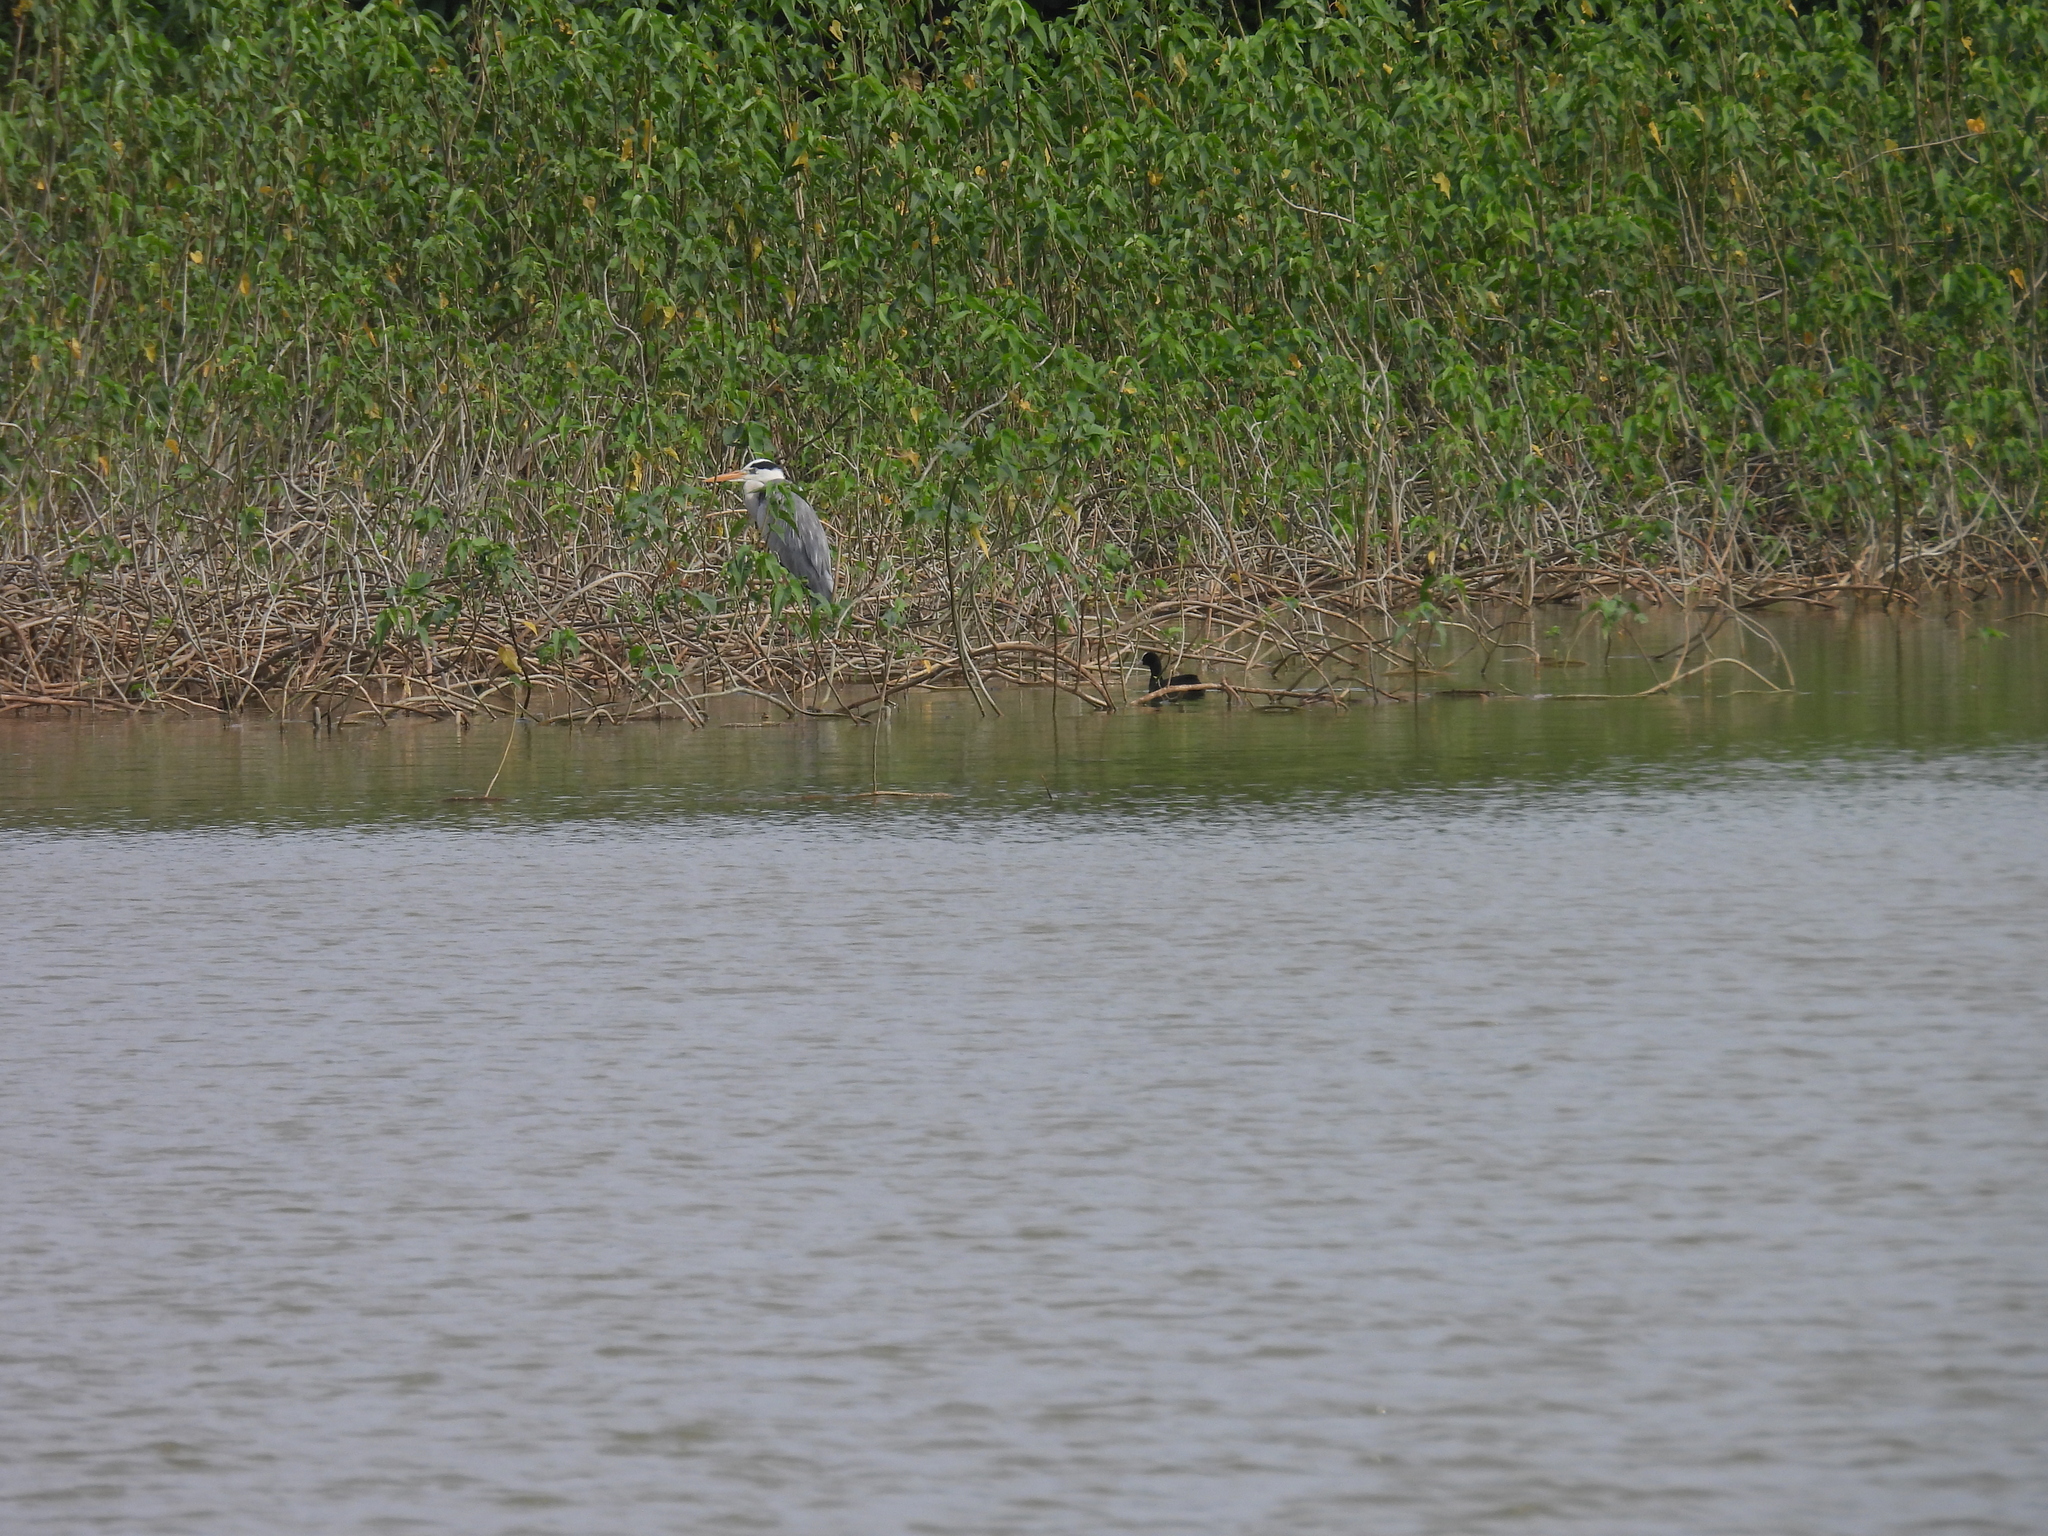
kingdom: Animalia
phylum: Chordata
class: Aves
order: Pelecaniformes
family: Ardeidae
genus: Ardea
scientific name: Ardea cinerea
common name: Grey heron
